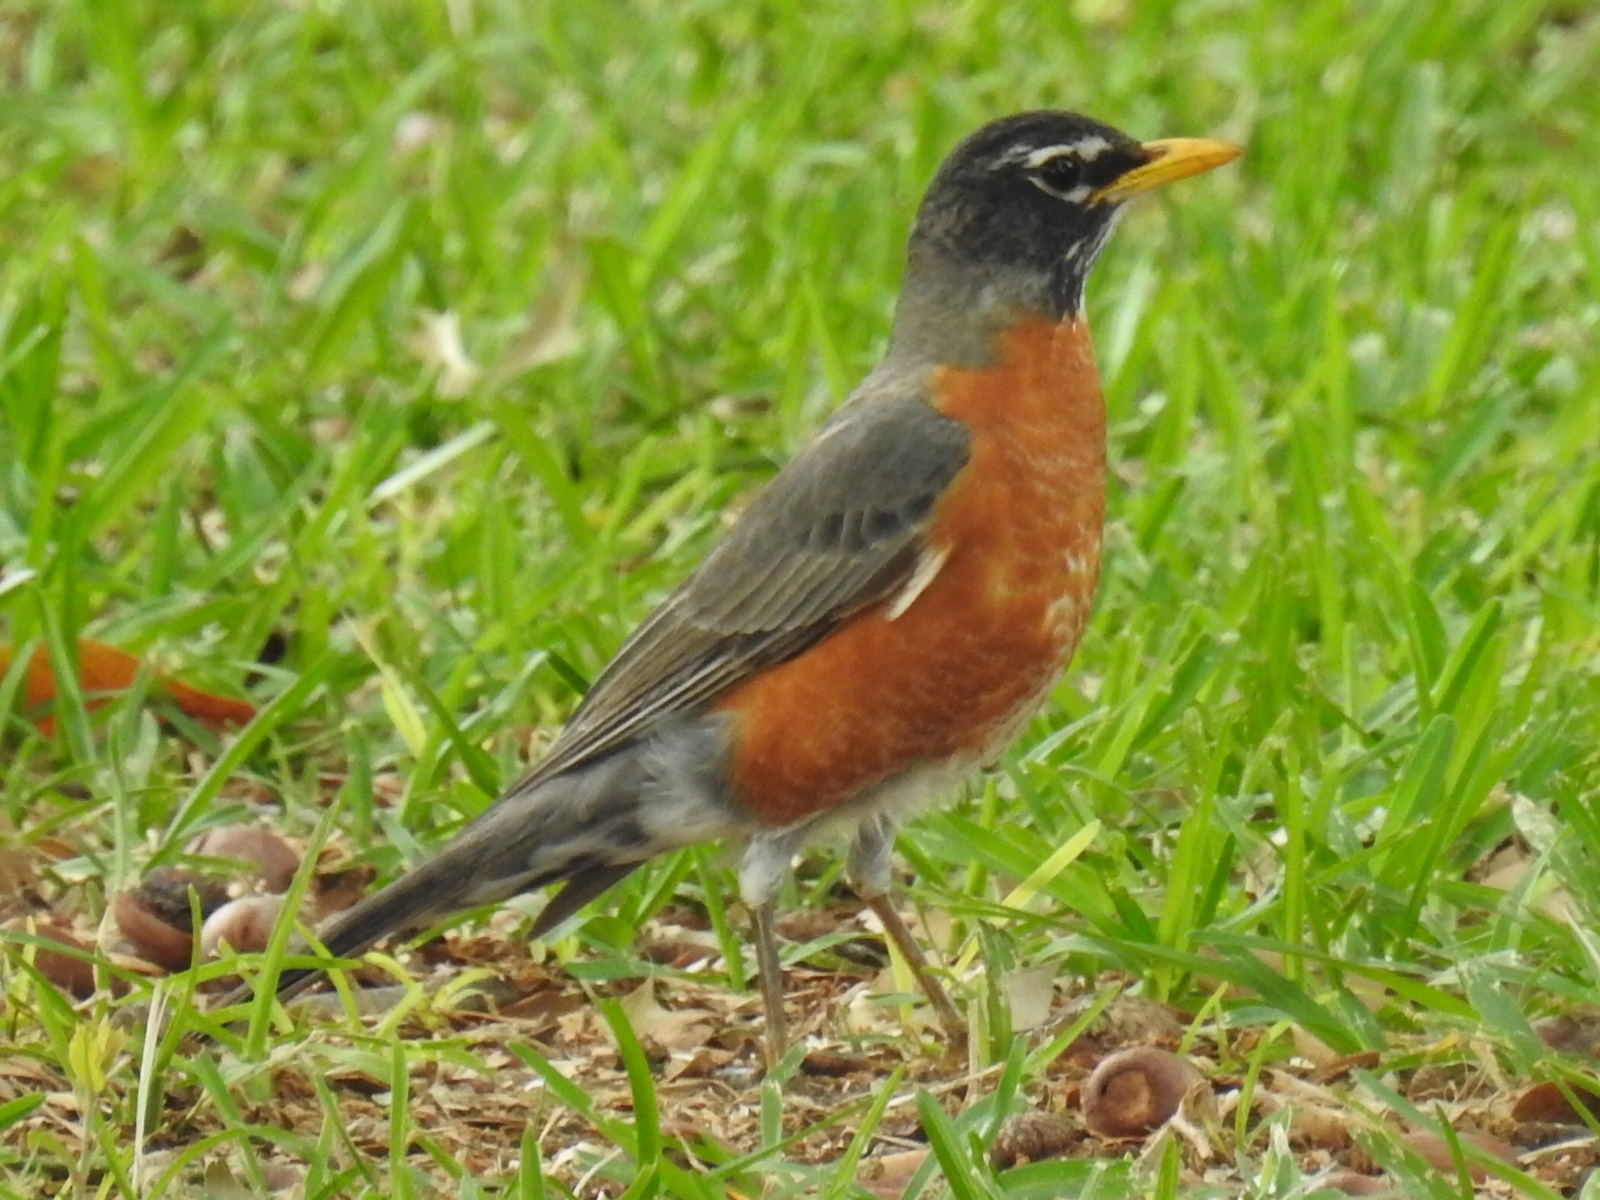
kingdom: Animalia
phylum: Chordata
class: Aves
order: Passeriformes
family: Turdidae
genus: Turdus
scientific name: Turdus migratorius
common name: American robin
